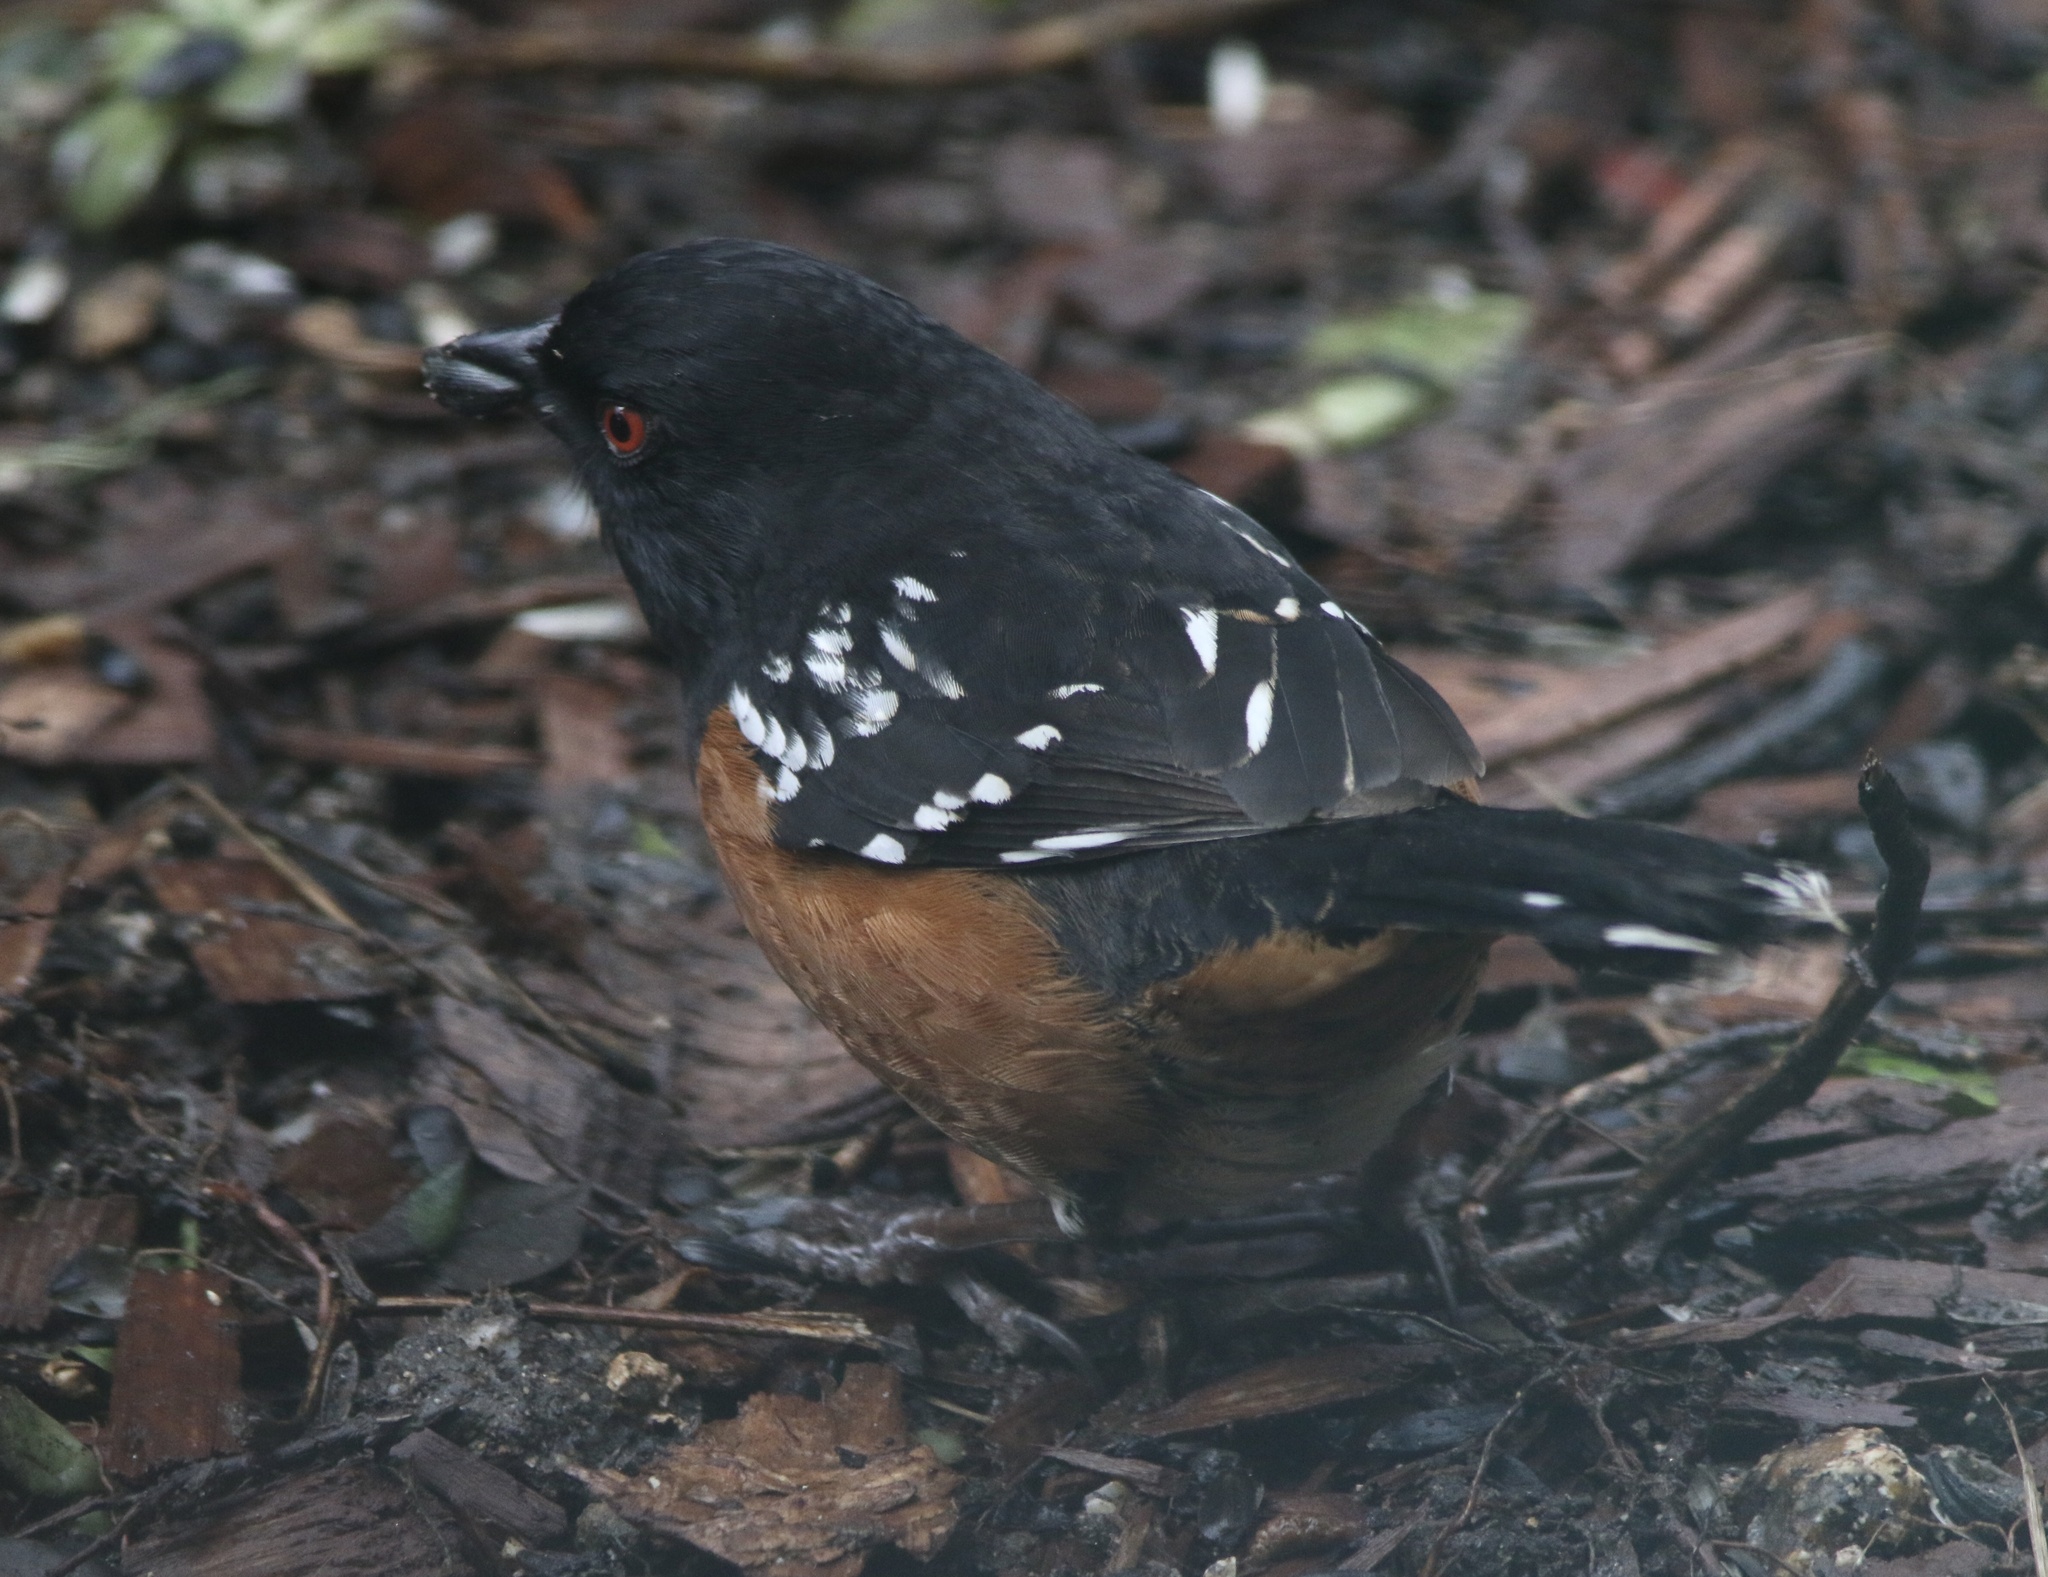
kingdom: Animalia
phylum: Chordata
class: Aves
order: Passeriformes
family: Passerellidae
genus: Pipilo
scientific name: Pipilo maculatus
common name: Spotted towhee
